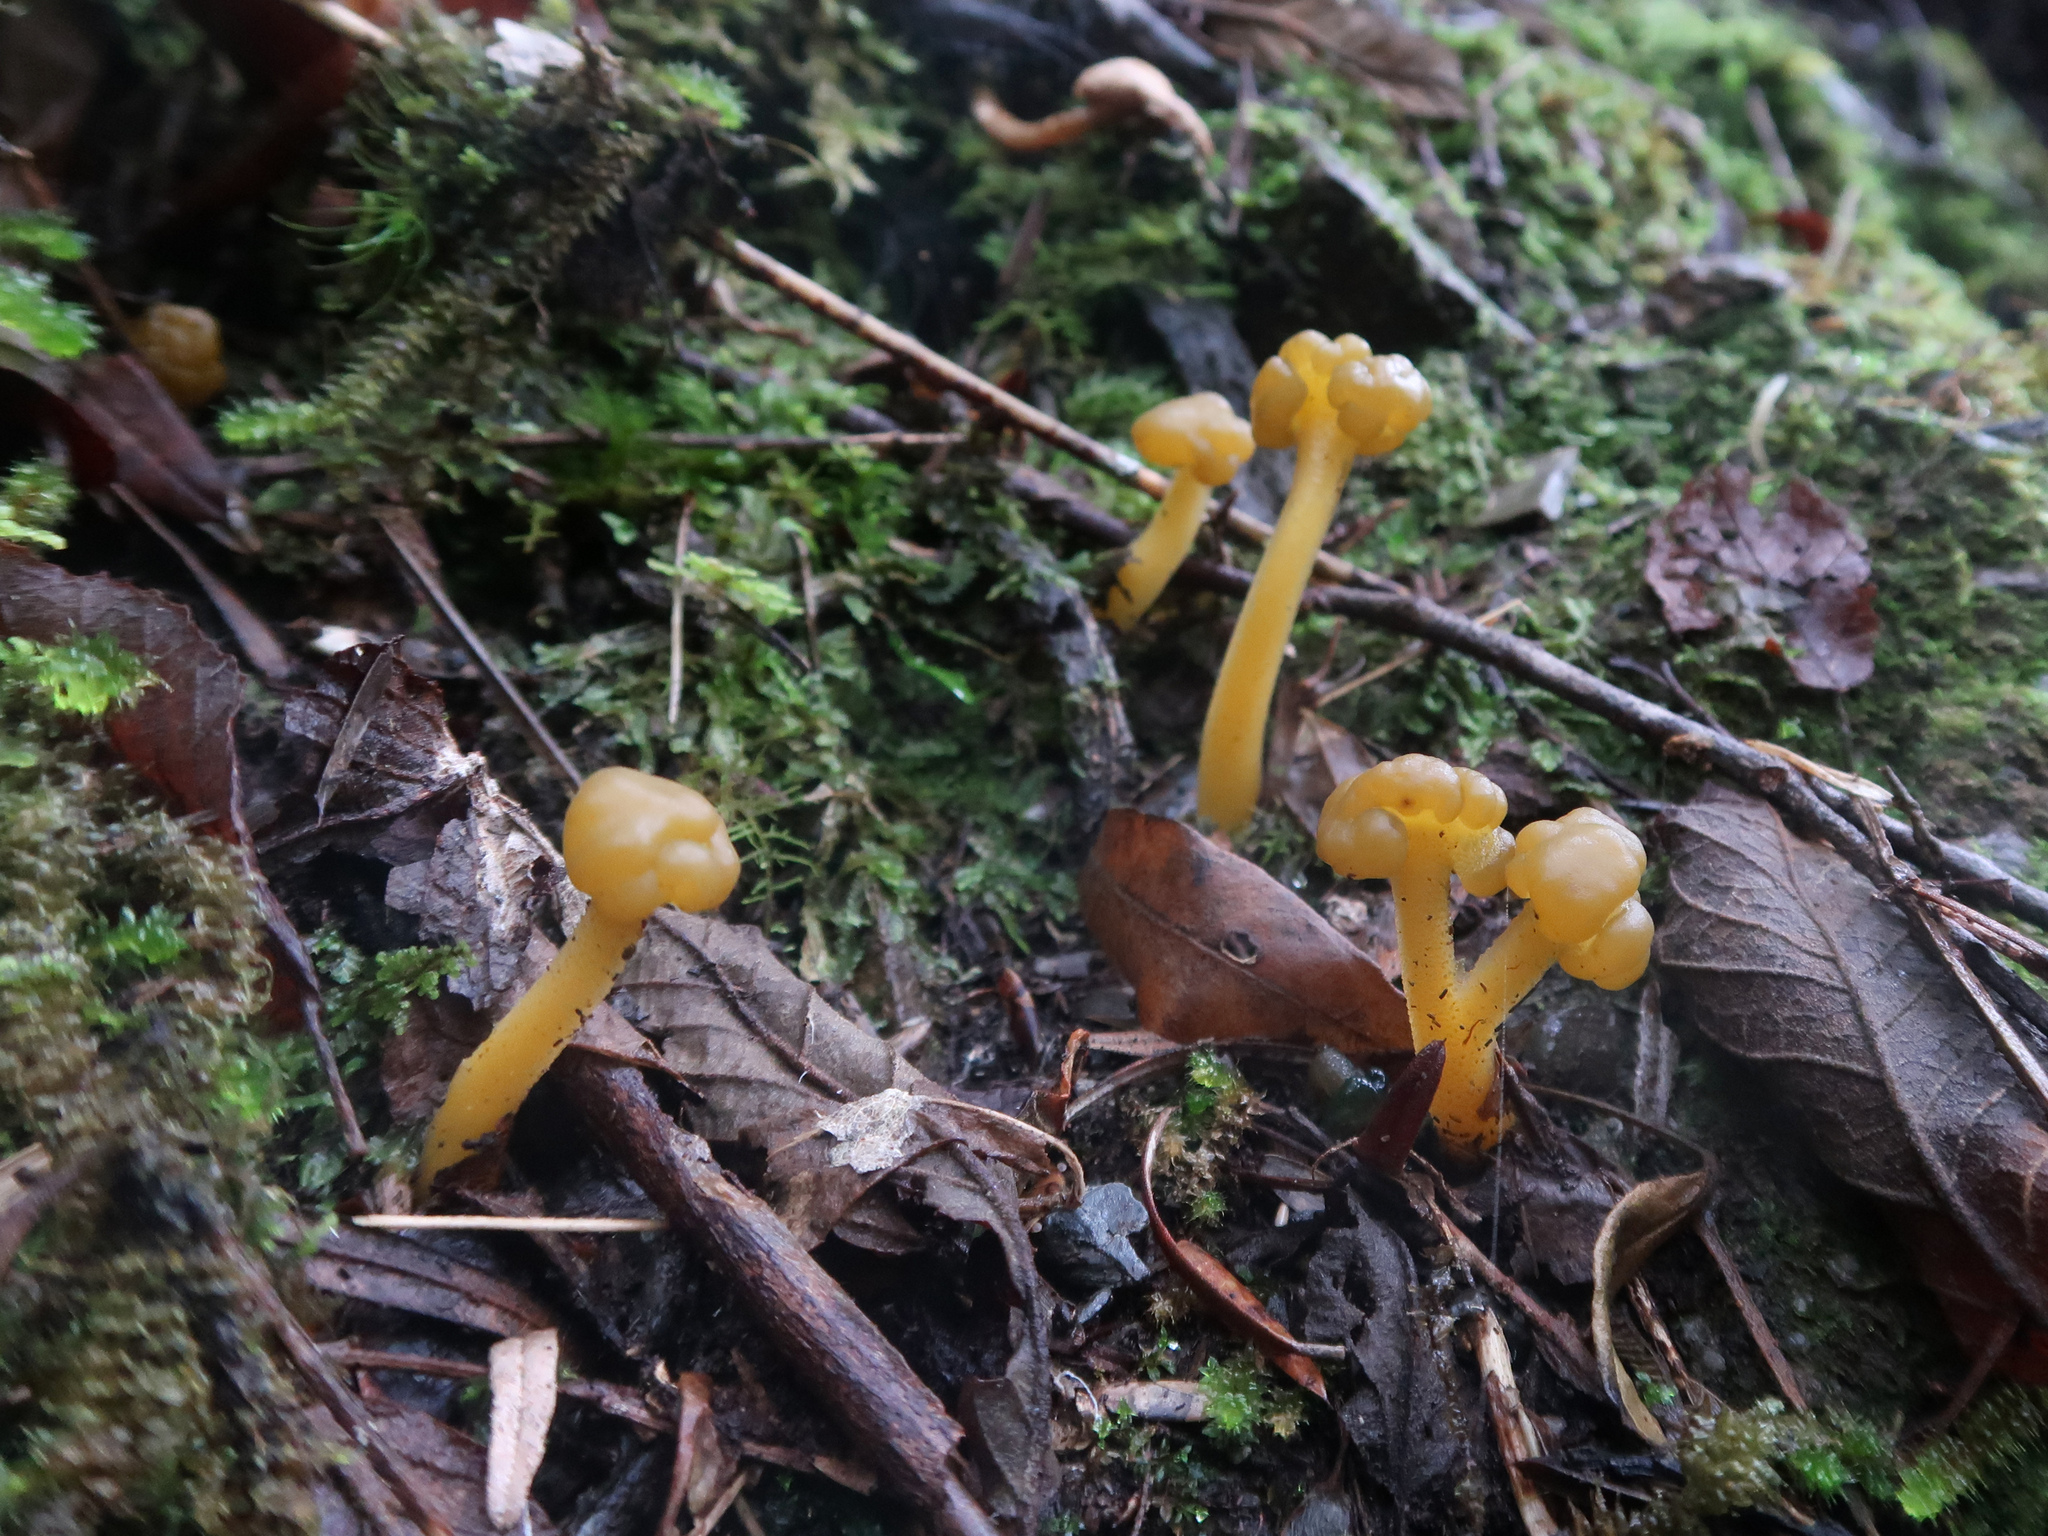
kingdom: Fungi
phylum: Ascomycota
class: Leotiomycetes
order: Leotiales
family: Leotiaceae
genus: Leotia
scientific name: Leotia lubrica
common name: Jellybaby
